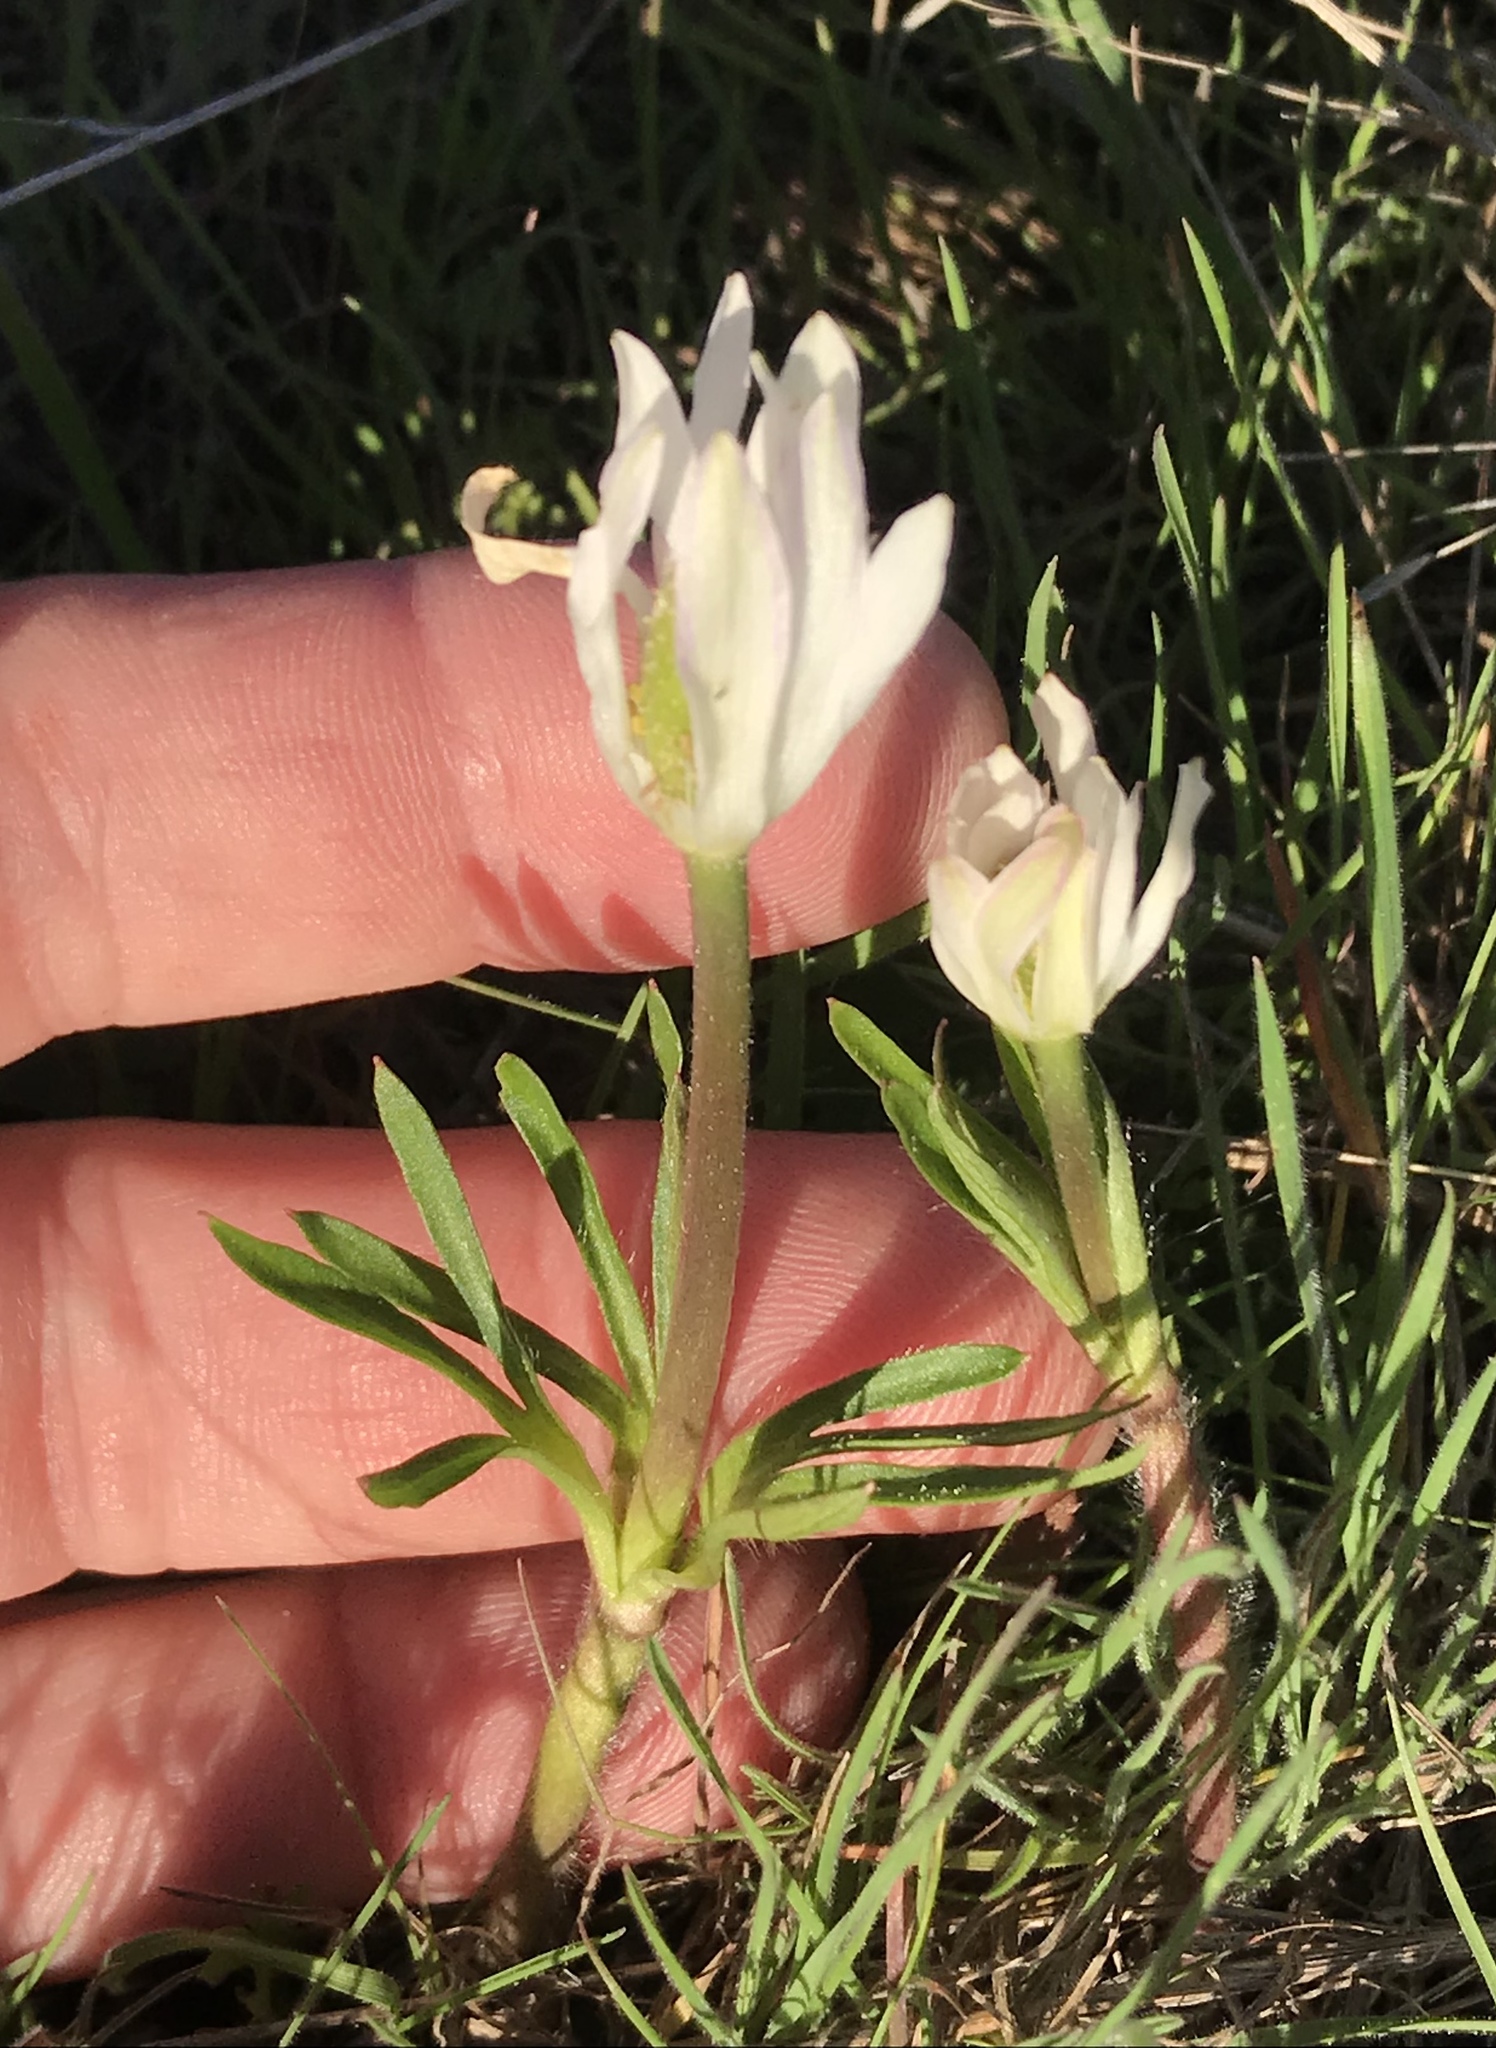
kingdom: Plantae
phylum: Tracheophyta
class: Magnoliopsida
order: Ranunculales
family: Ranunculaceae
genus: Anemone
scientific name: Anemone berlandieri
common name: Ten-petal anemone
